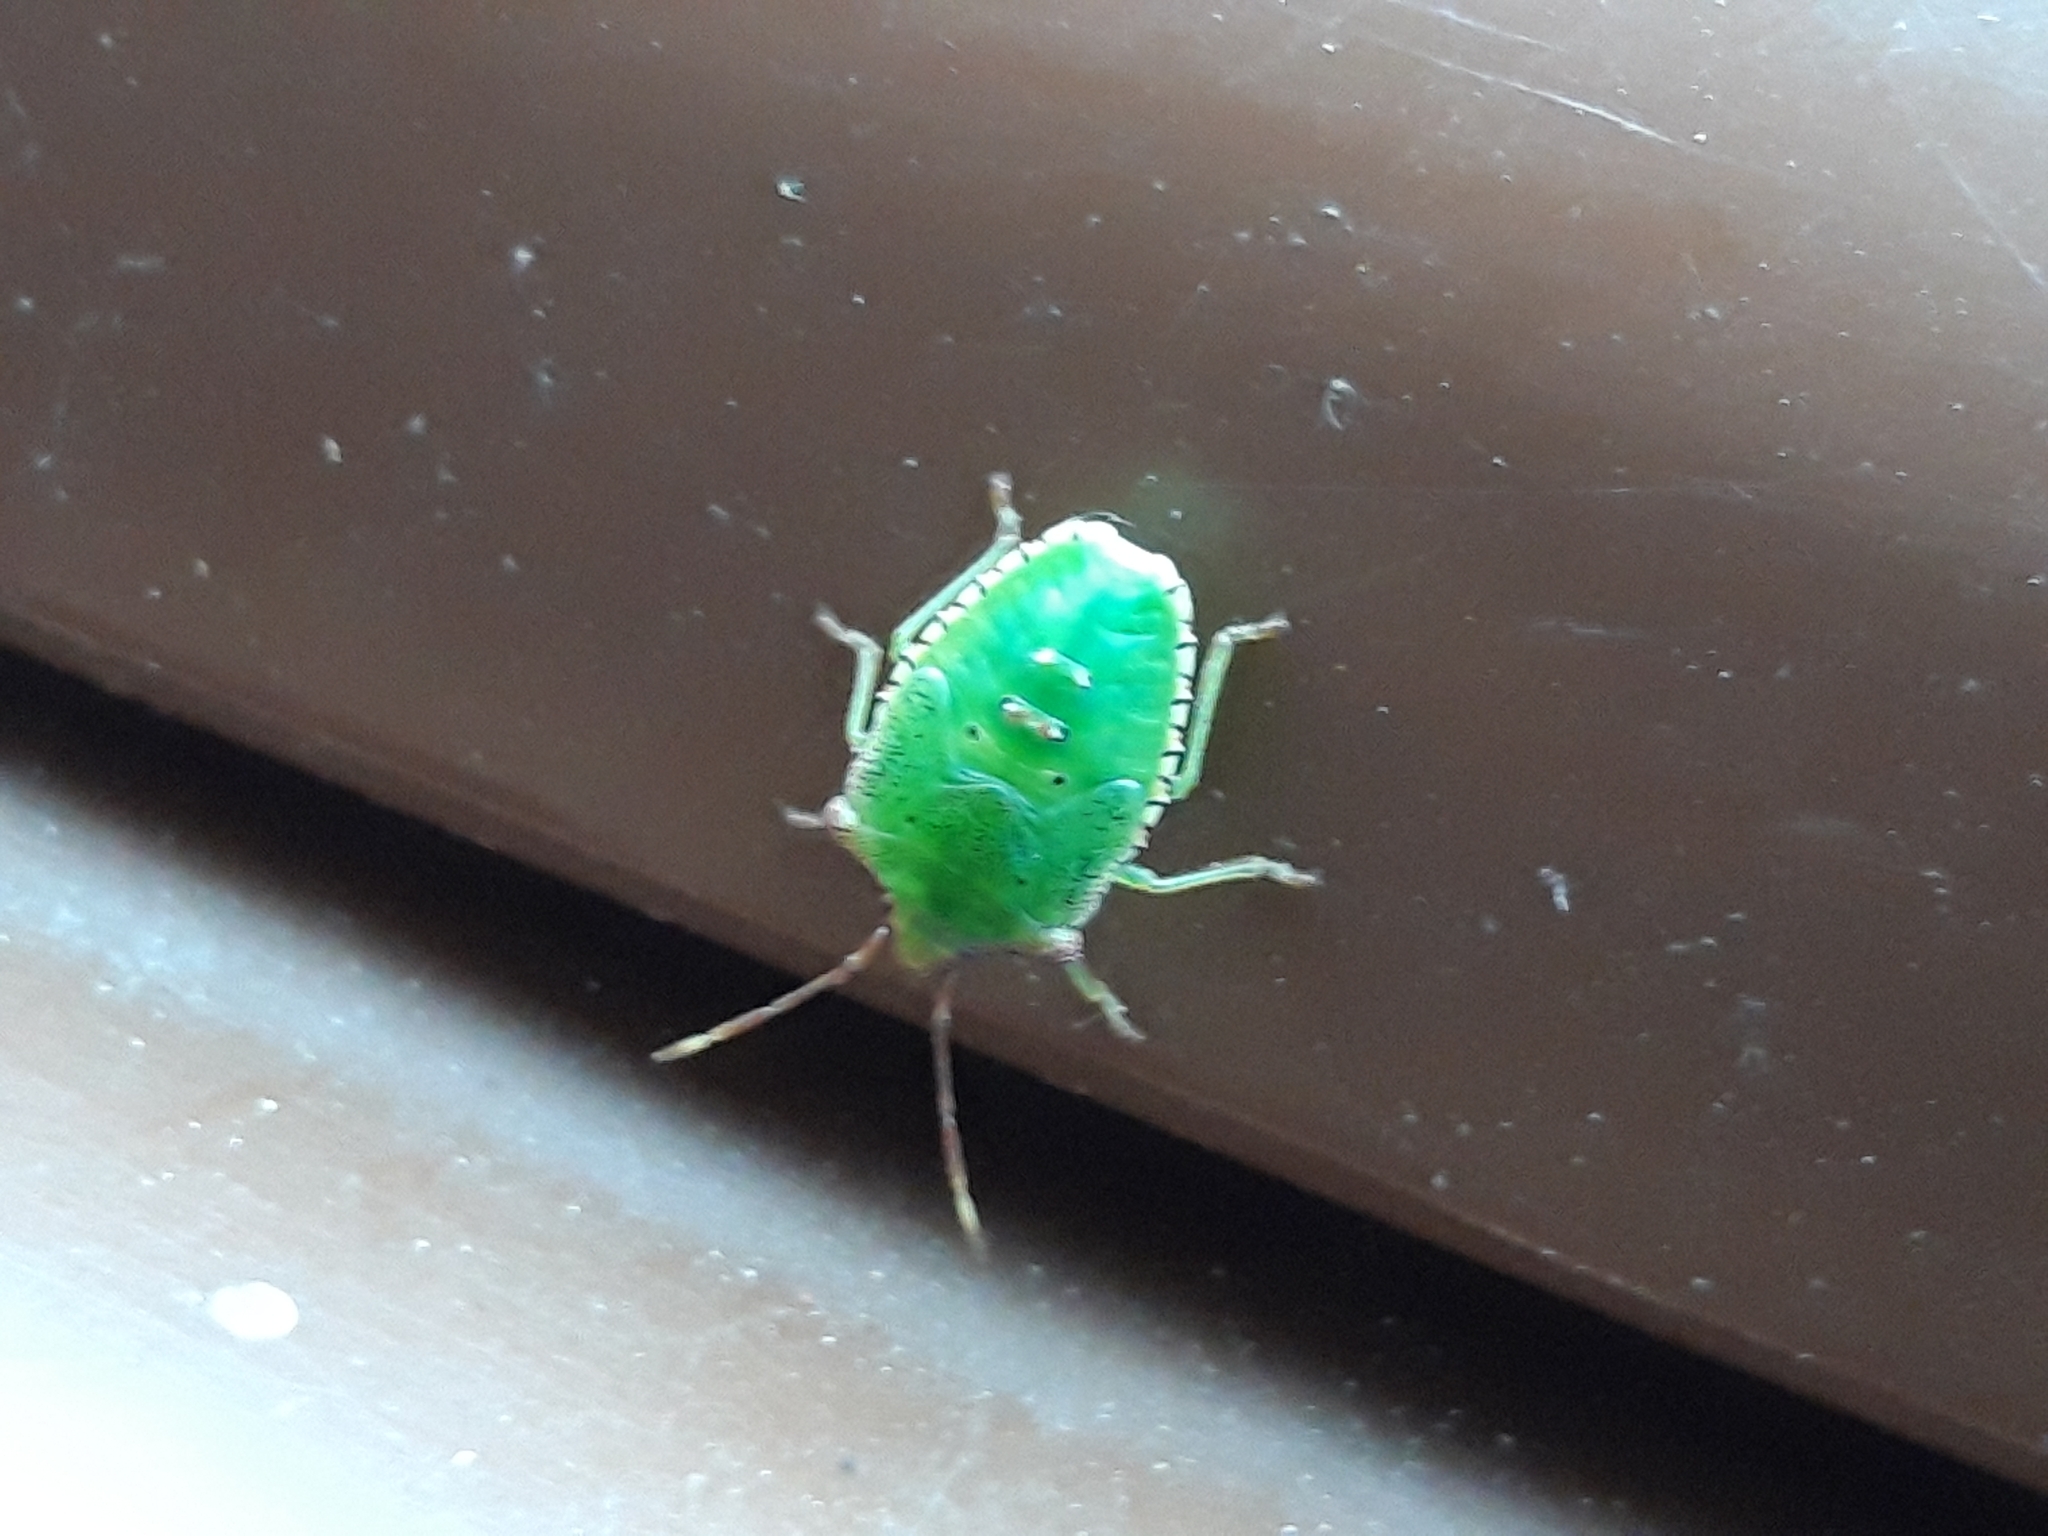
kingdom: Animalia
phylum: Arthropoda
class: Insecta
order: Hemiptera
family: Acanthosomatidae
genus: Acanthosoma
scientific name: Acanthosoma haemorrhoidale
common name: Hawthorn shieldbug
